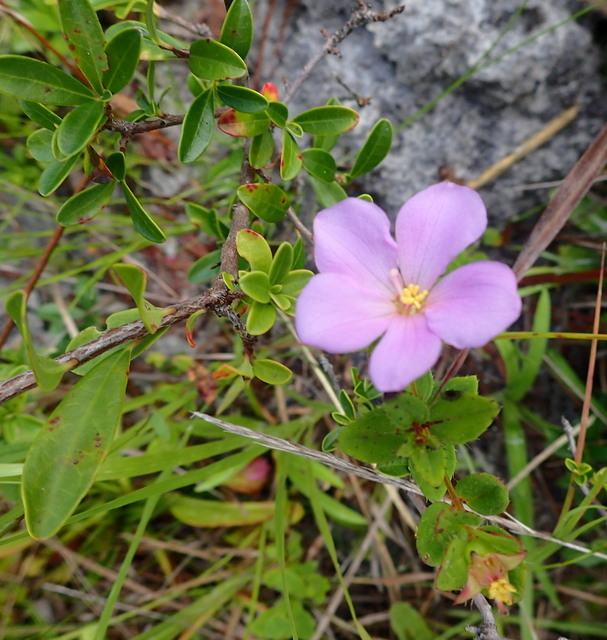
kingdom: Plantae
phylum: Tracheophyta
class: Magnoliopsida
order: Myrtales
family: Melastomataceae
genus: Rhexia
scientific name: Rhexia petiolata
